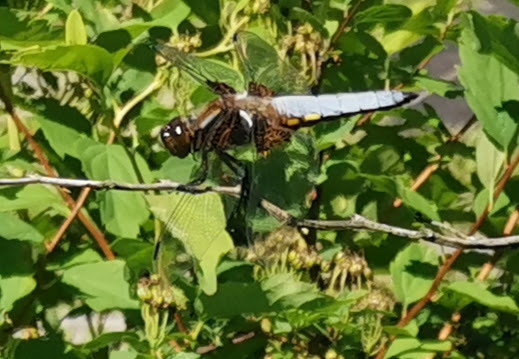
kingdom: Animalia
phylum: Arthropoda
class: Insecta
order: Odonata
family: Libellulidae
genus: Libellula
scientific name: Libellula depressa
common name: Broad-bodied chaser
